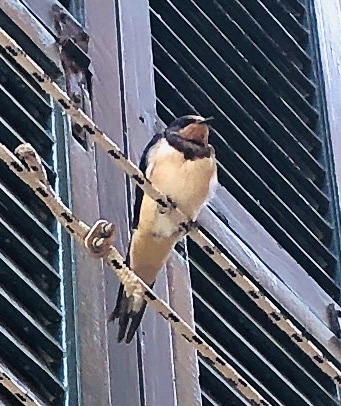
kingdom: Animalia
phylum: Chordata
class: Aves
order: Passeriformes
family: Hirundinidae
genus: Hirundo
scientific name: Hirundo rustica
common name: Barn swallow
